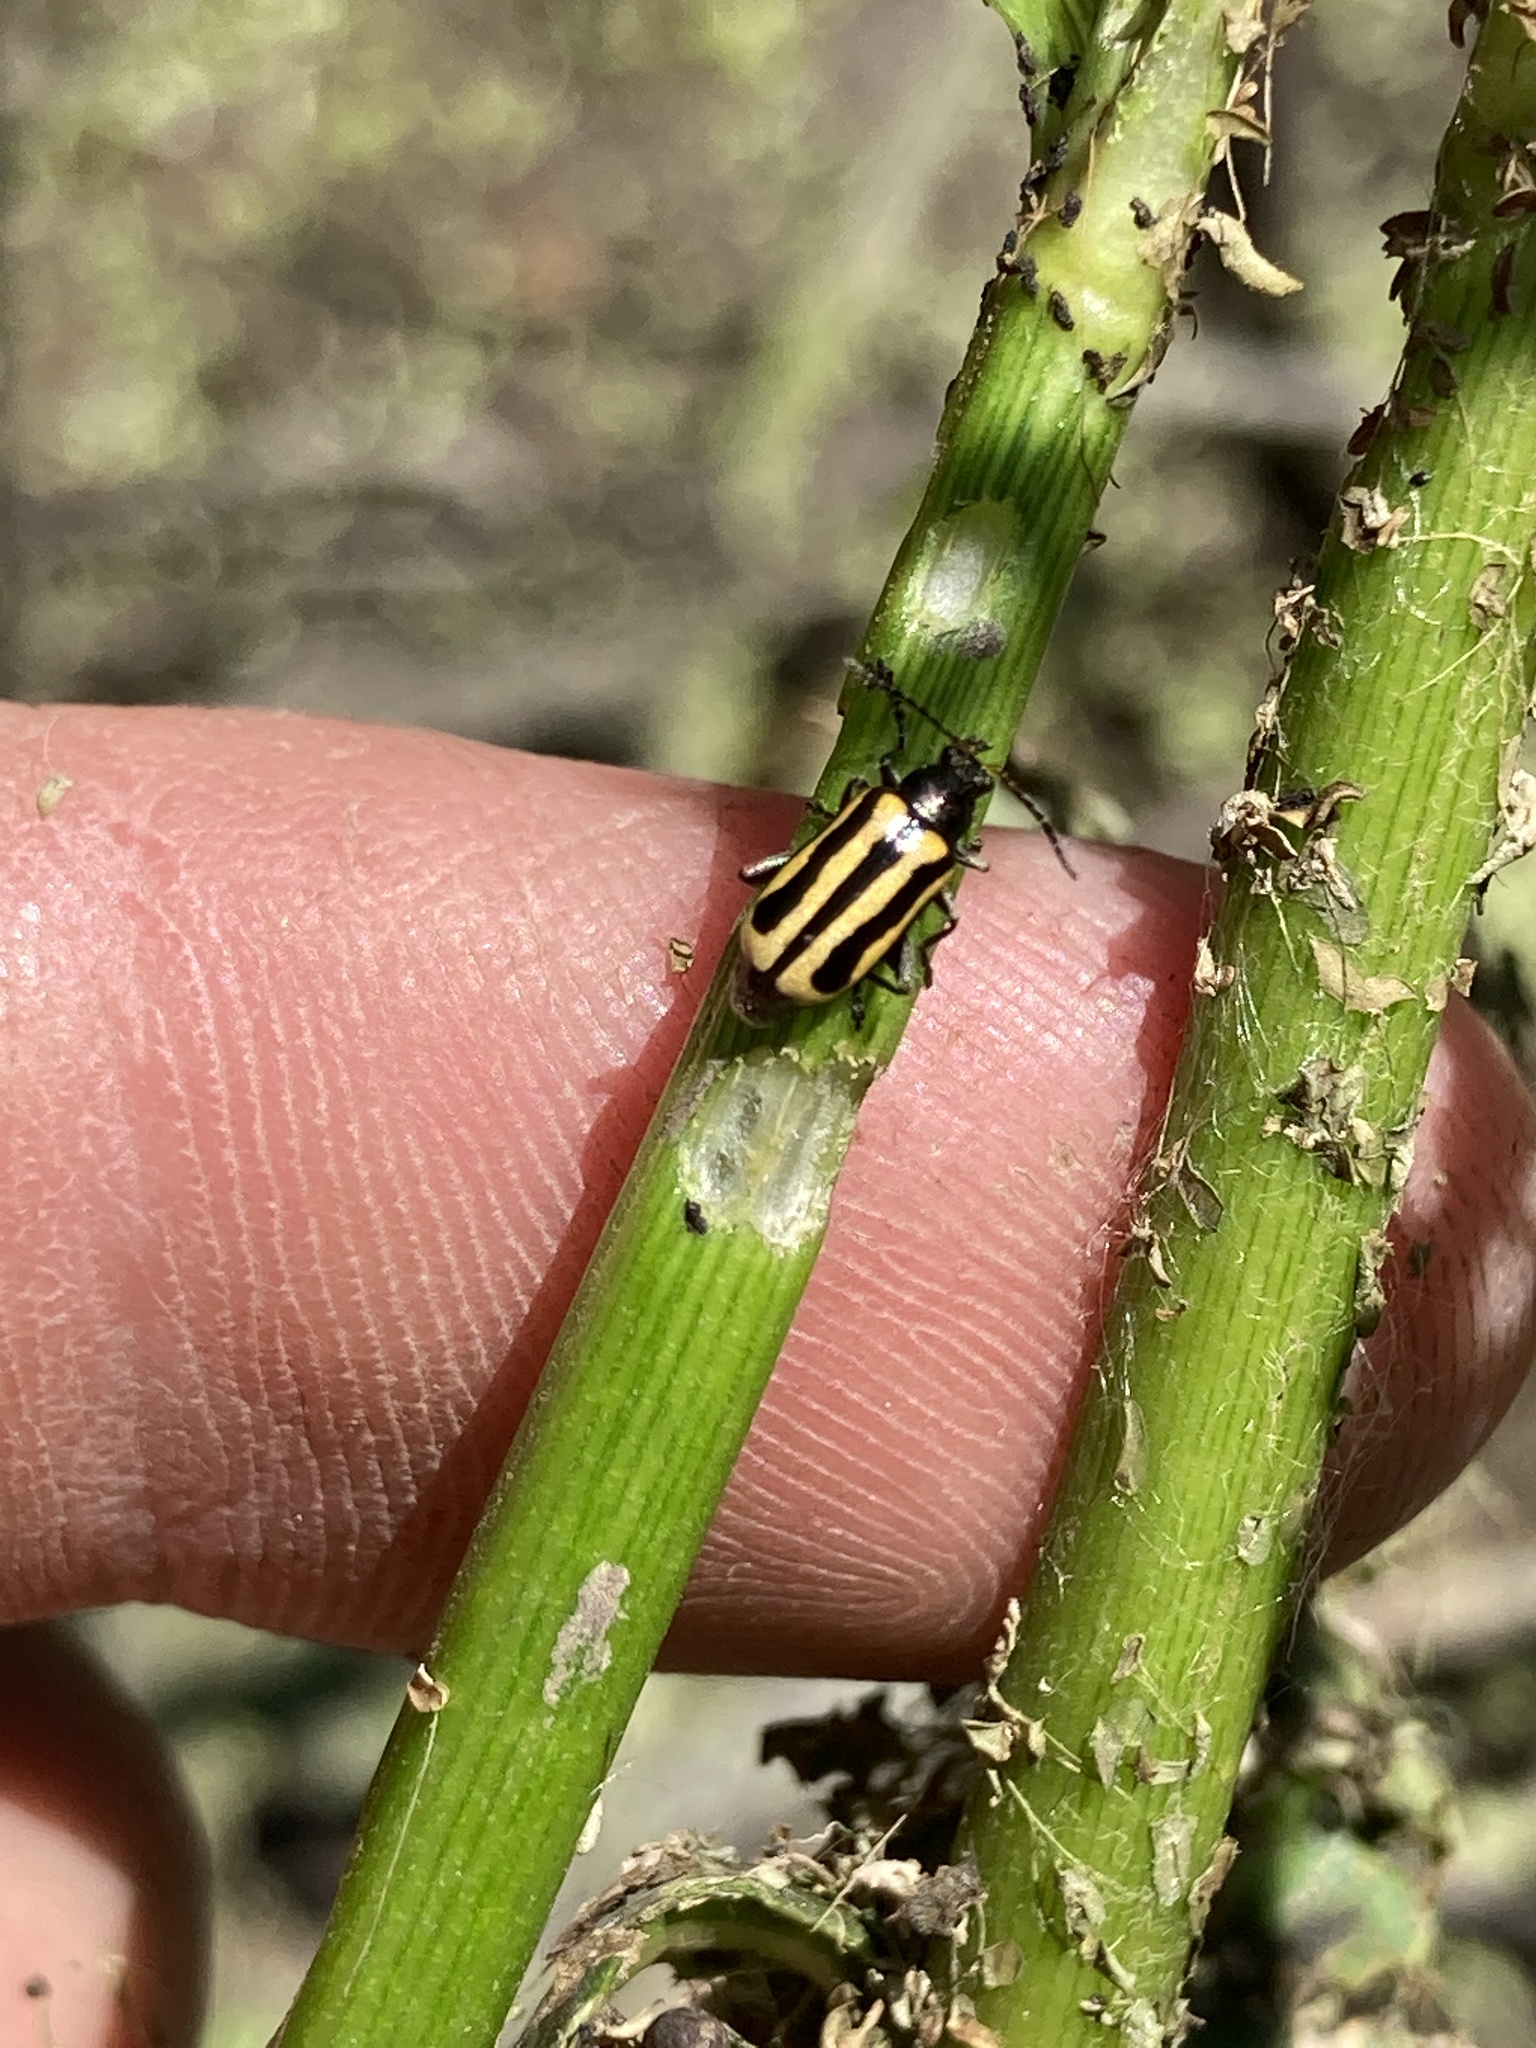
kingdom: Animalia
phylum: Arthropoda
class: Insecta
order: Coleoptera
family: Chrysomelidae
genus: Agasicles
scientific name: Agasicles hygrophila
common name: Alligatorweed flea beetle
